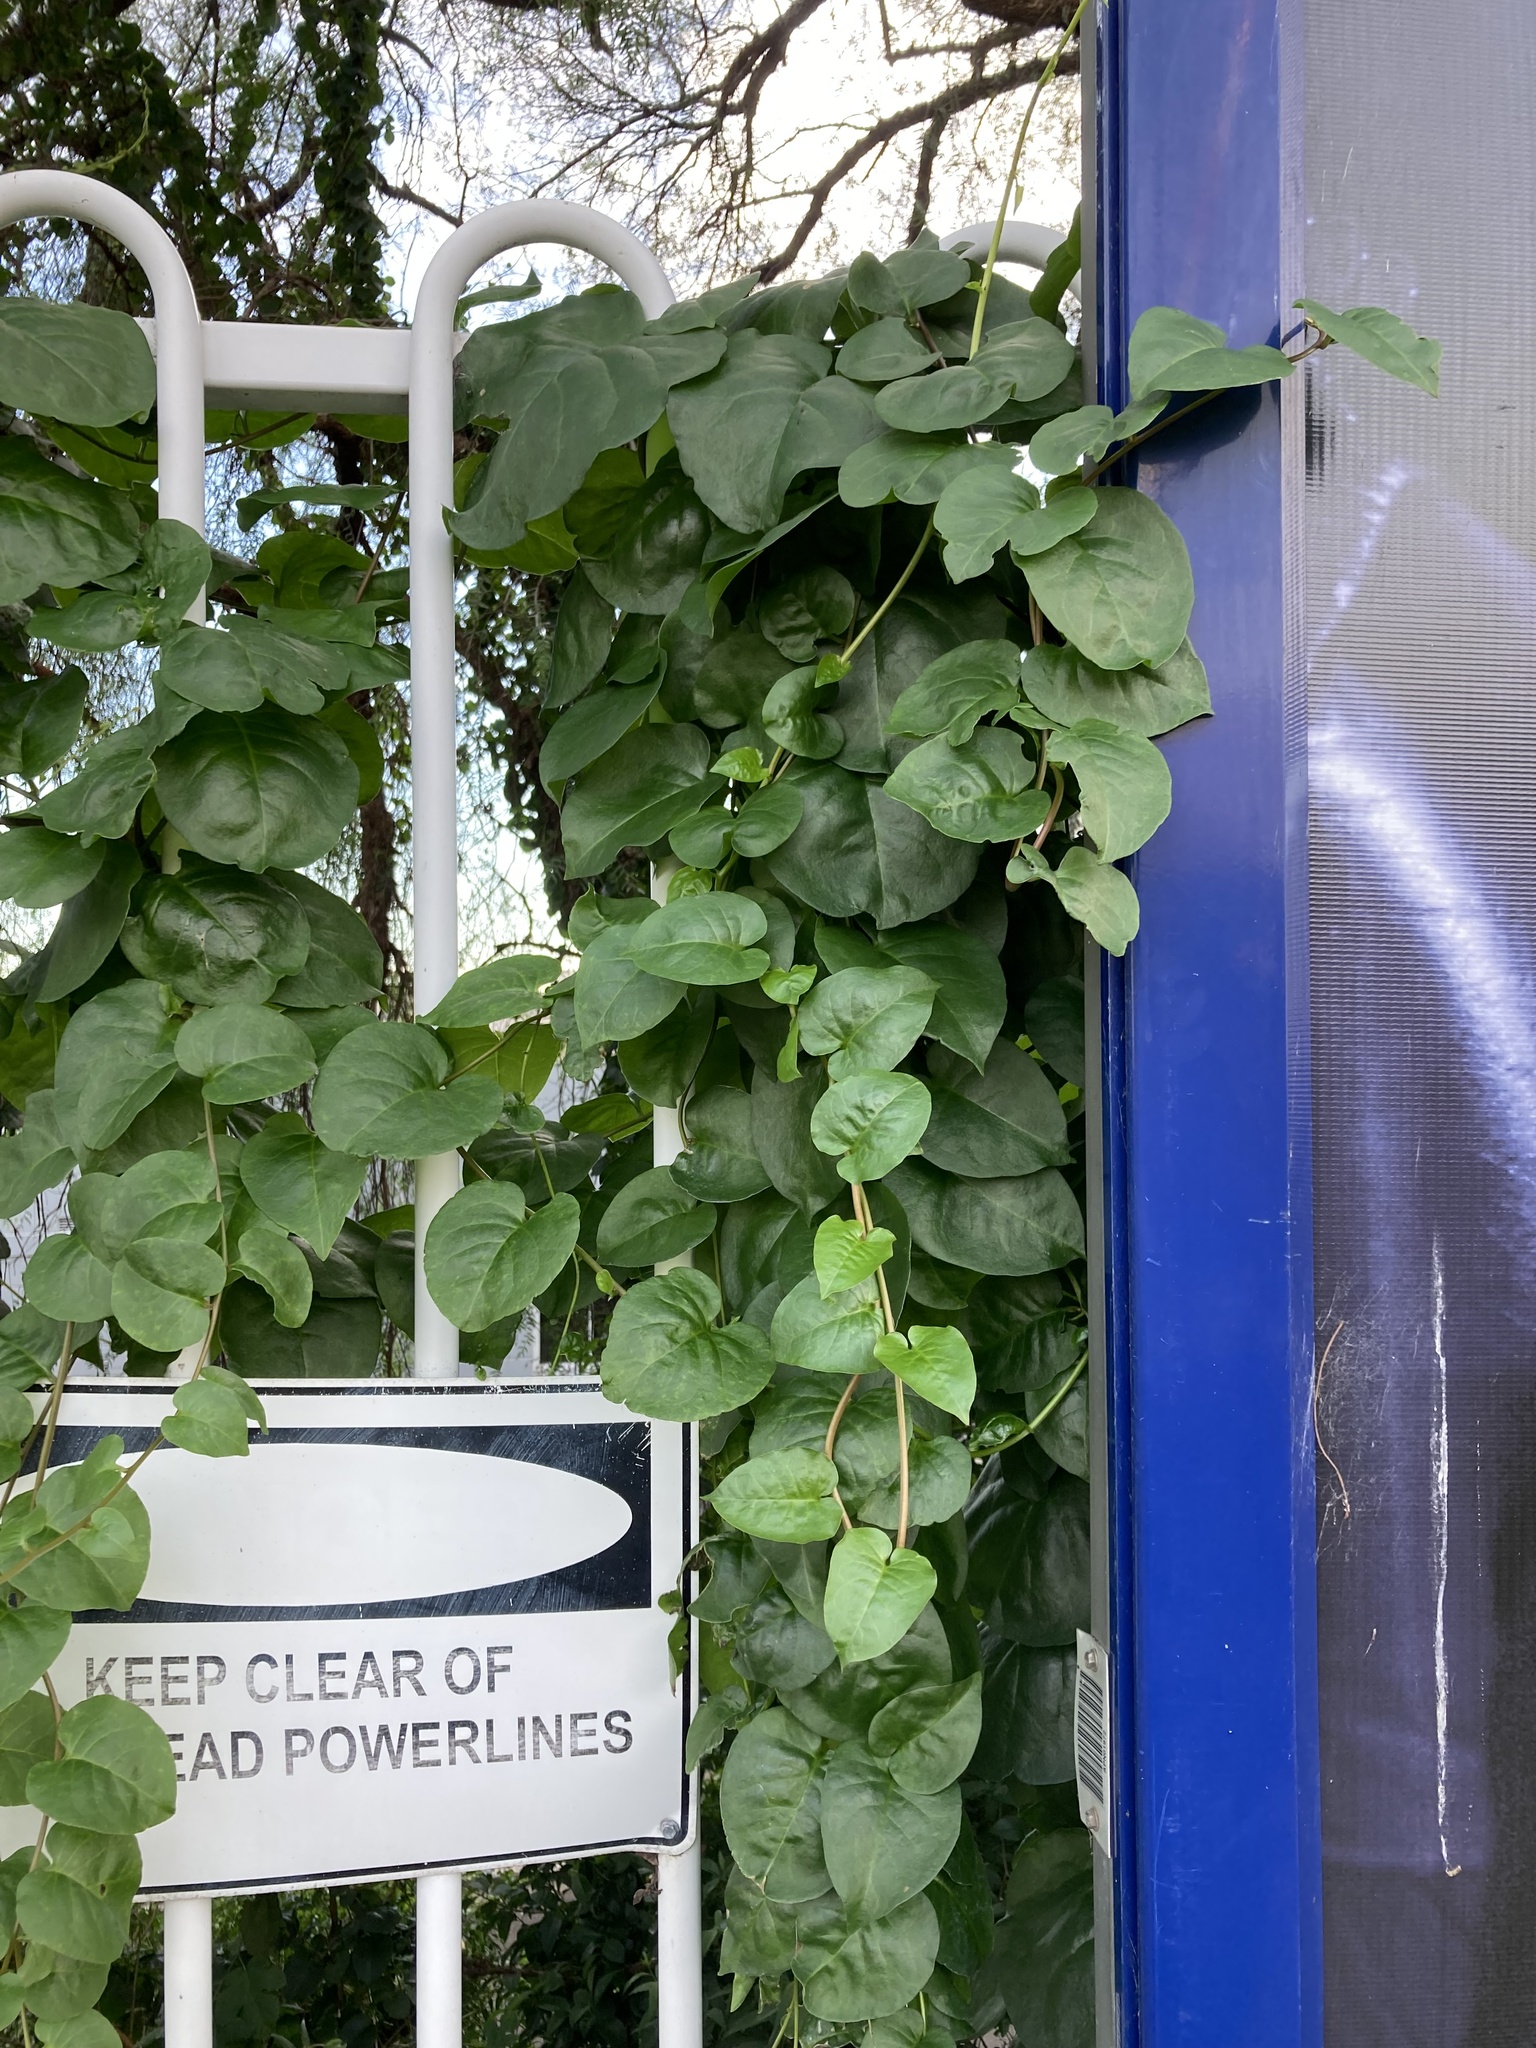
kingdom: Plantae
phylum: Tracheophyta
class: Magnoliopsida
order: Caryophyllales
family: Basellaceae
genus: Anredera
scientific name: Anredera cordifolia
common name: Heartleaf madeiravine
